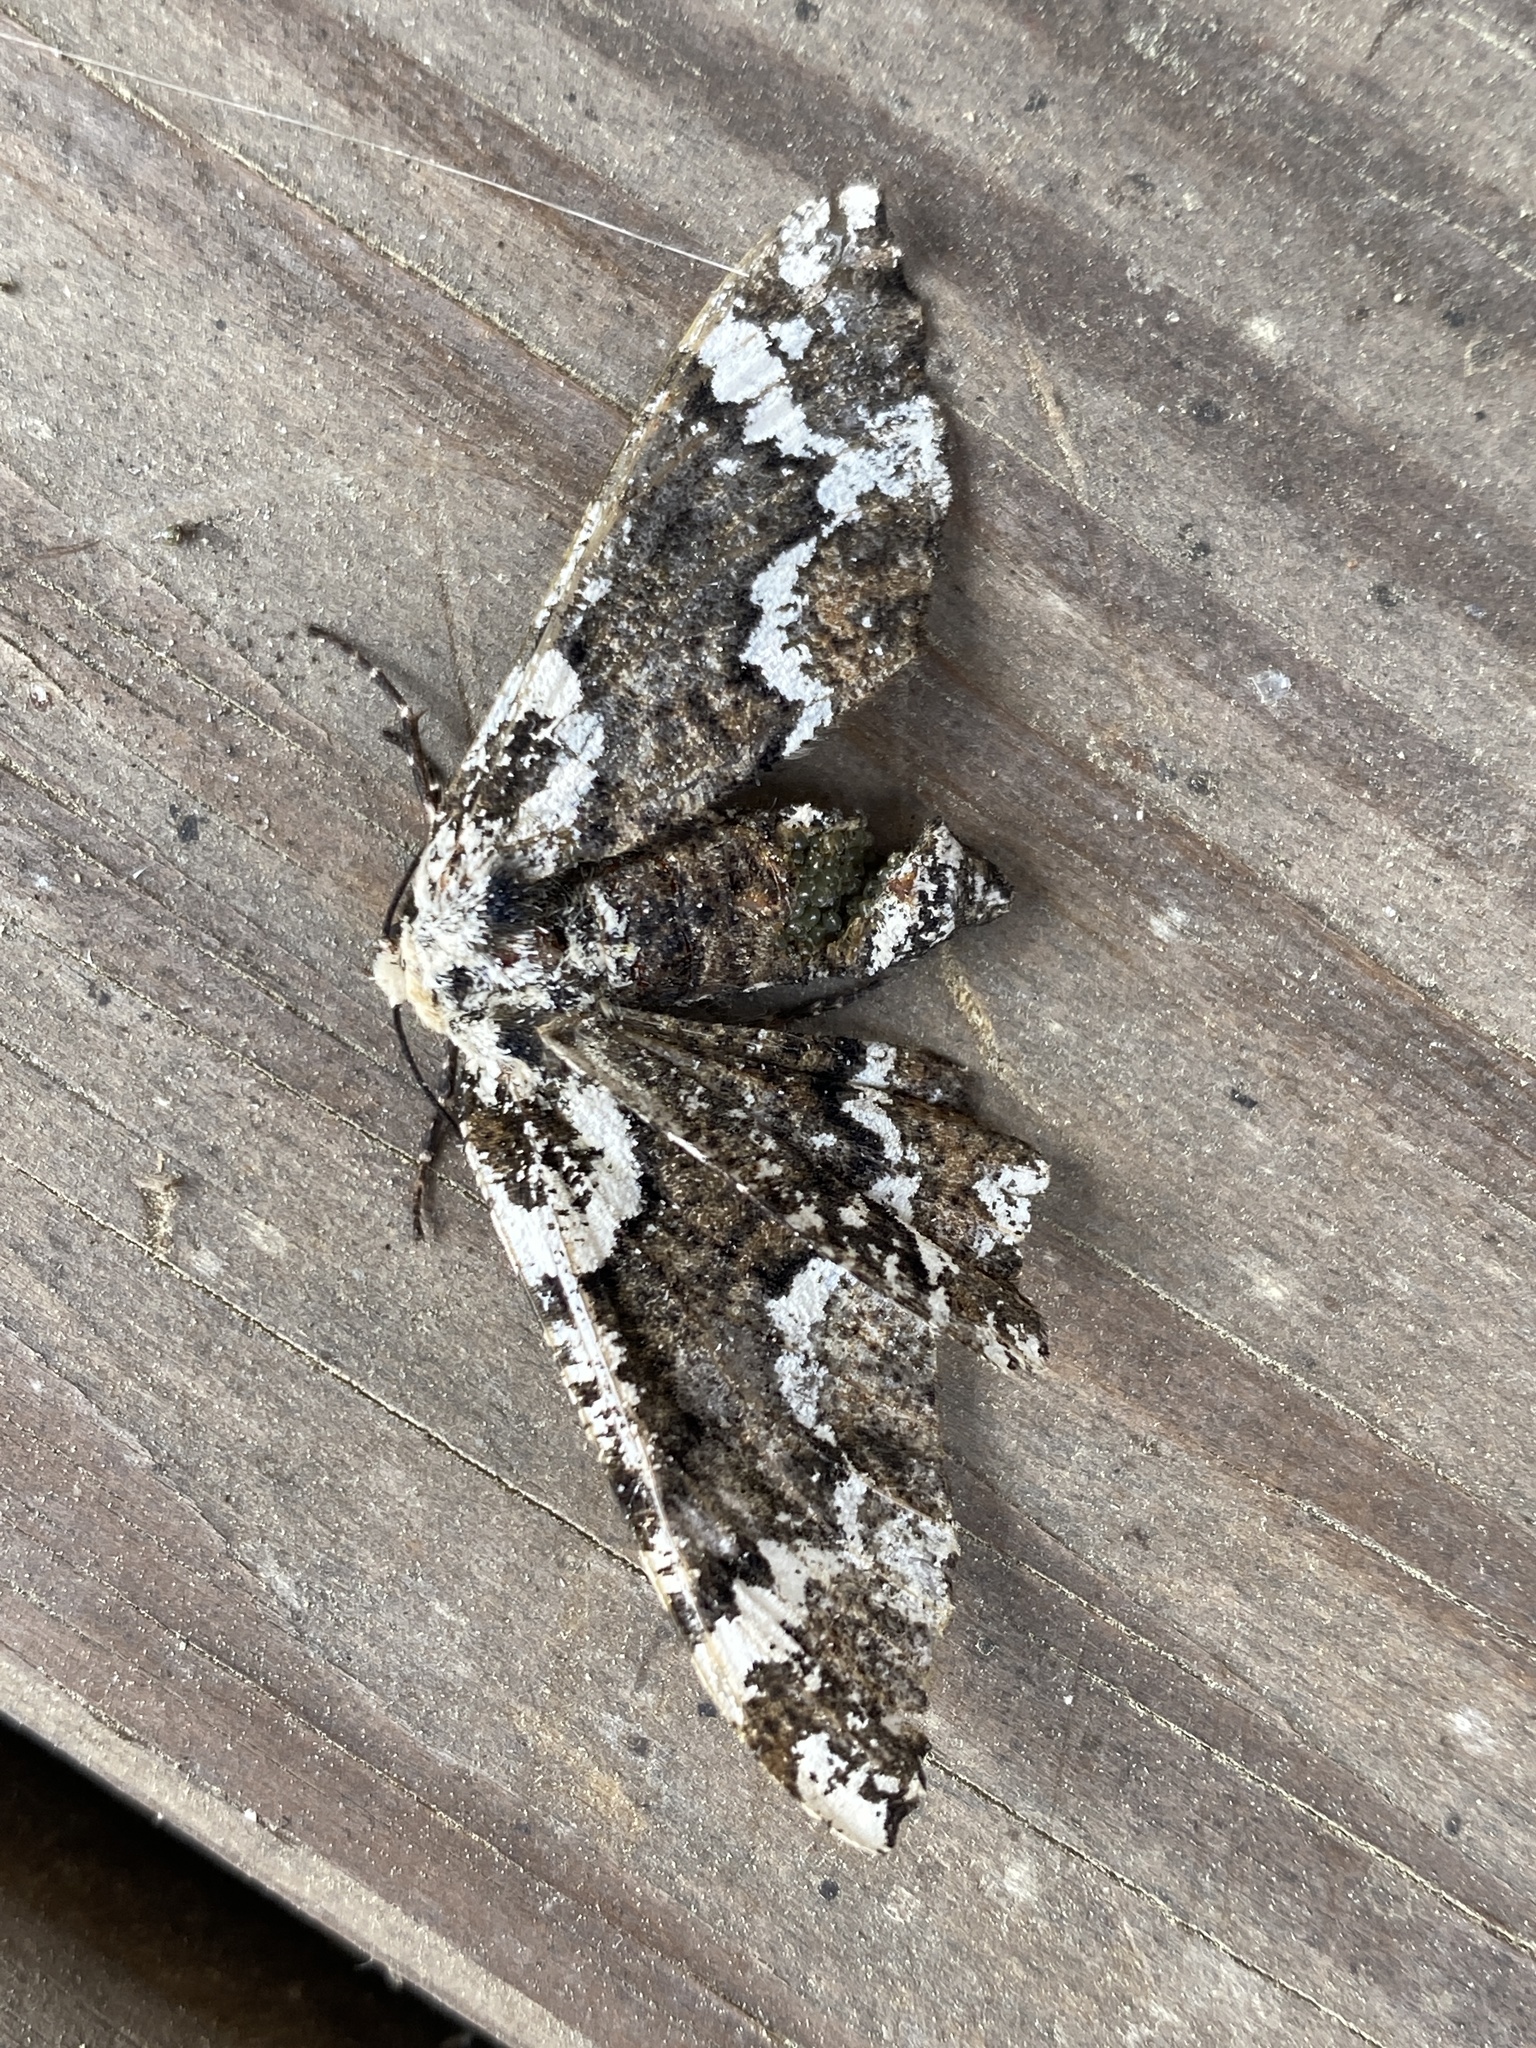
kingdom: Animalia
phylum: Arthropoda
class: Insecta
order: Lepidoptera
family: Geometridae
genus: Phaeoura
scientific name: Phaeoura quernaria
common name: Oak beauty
